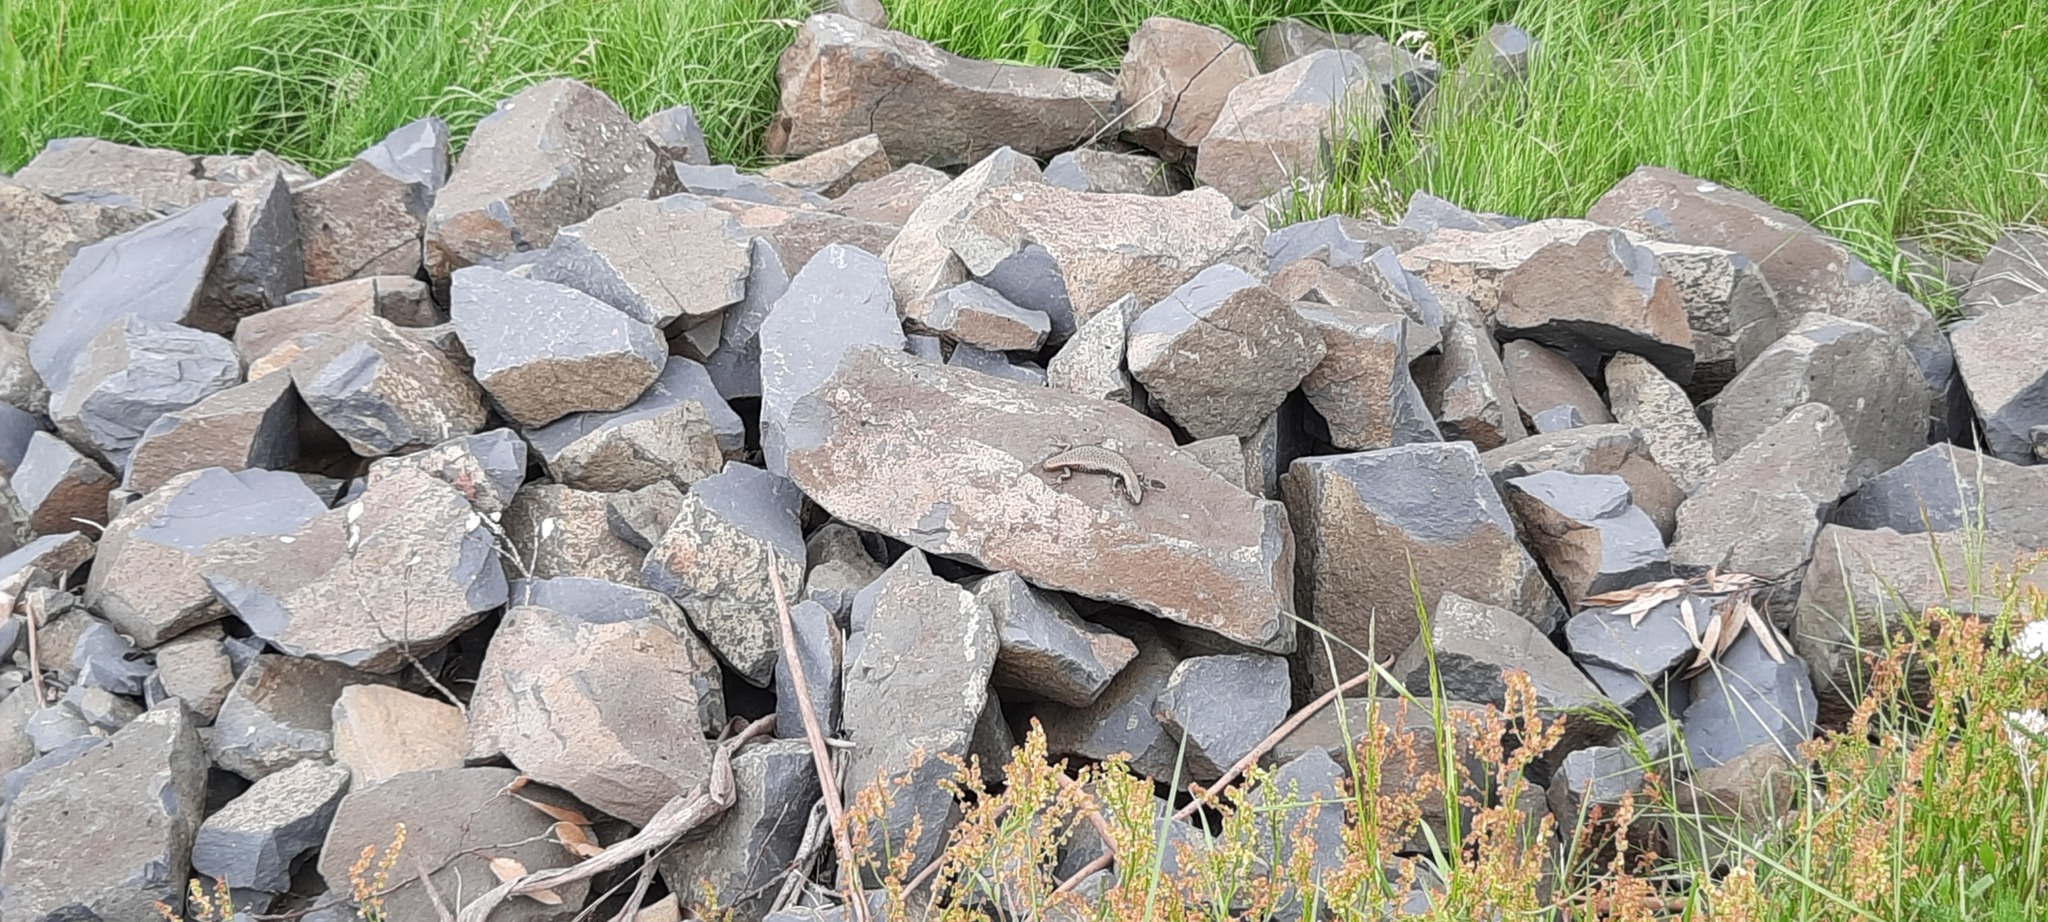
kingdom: Animalia
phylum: Chordata
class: Squamata
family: Scincidae
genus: Eulamprus
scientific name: Eulamprus tympanum
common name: Cool-temperate water-skink
